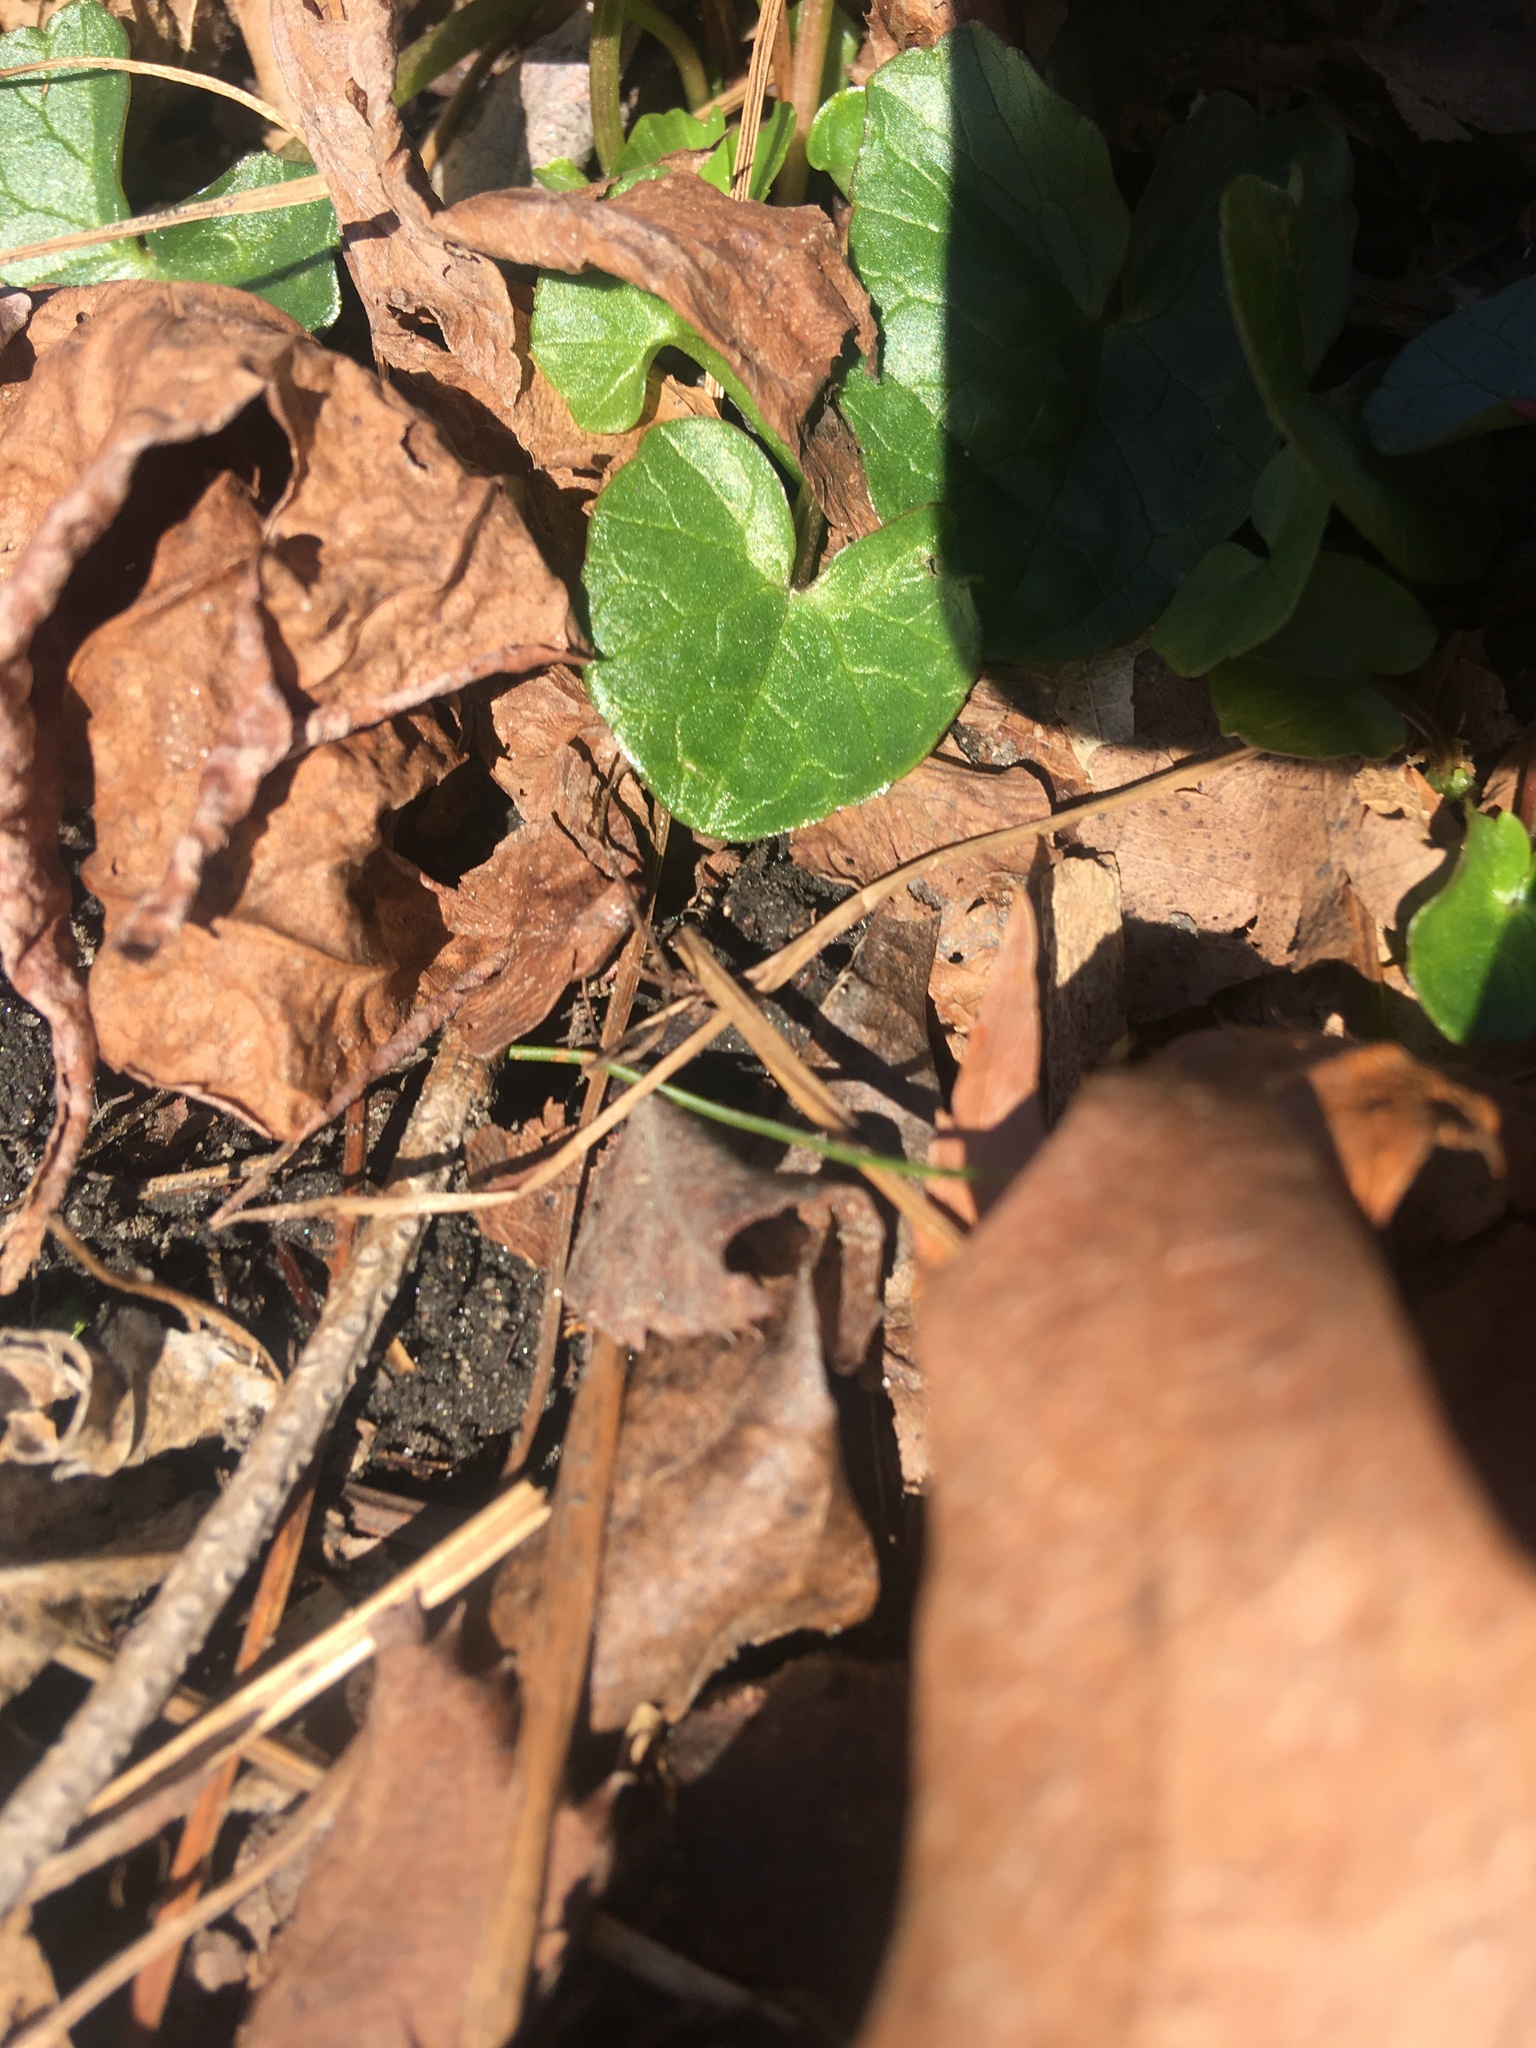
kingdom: Plantae
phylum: Tracheophyta
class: Magnoliopsida
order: Ranunculales
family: Ranunculaceae
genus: Ficaria
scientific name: Ficaria verna
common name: Lesser celandine
